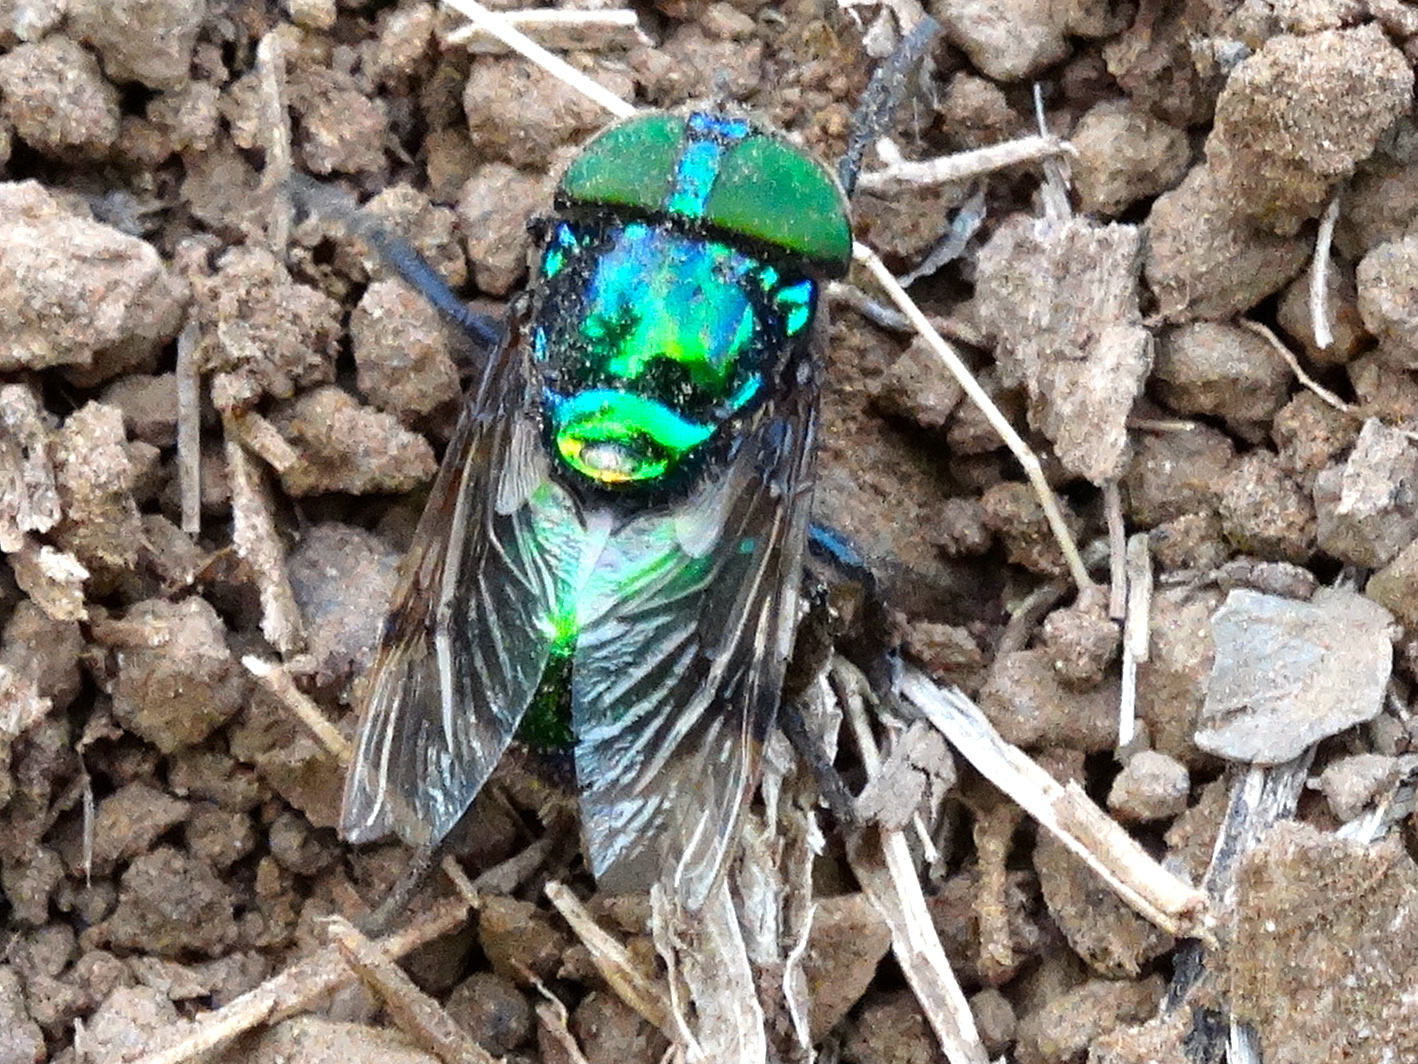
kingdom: Animalia
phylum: Arthropoda
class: Insecta
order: Diptera
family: Syrphidae
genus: Ornidia
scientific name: Ornidia obesa
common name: Syrphid fly
